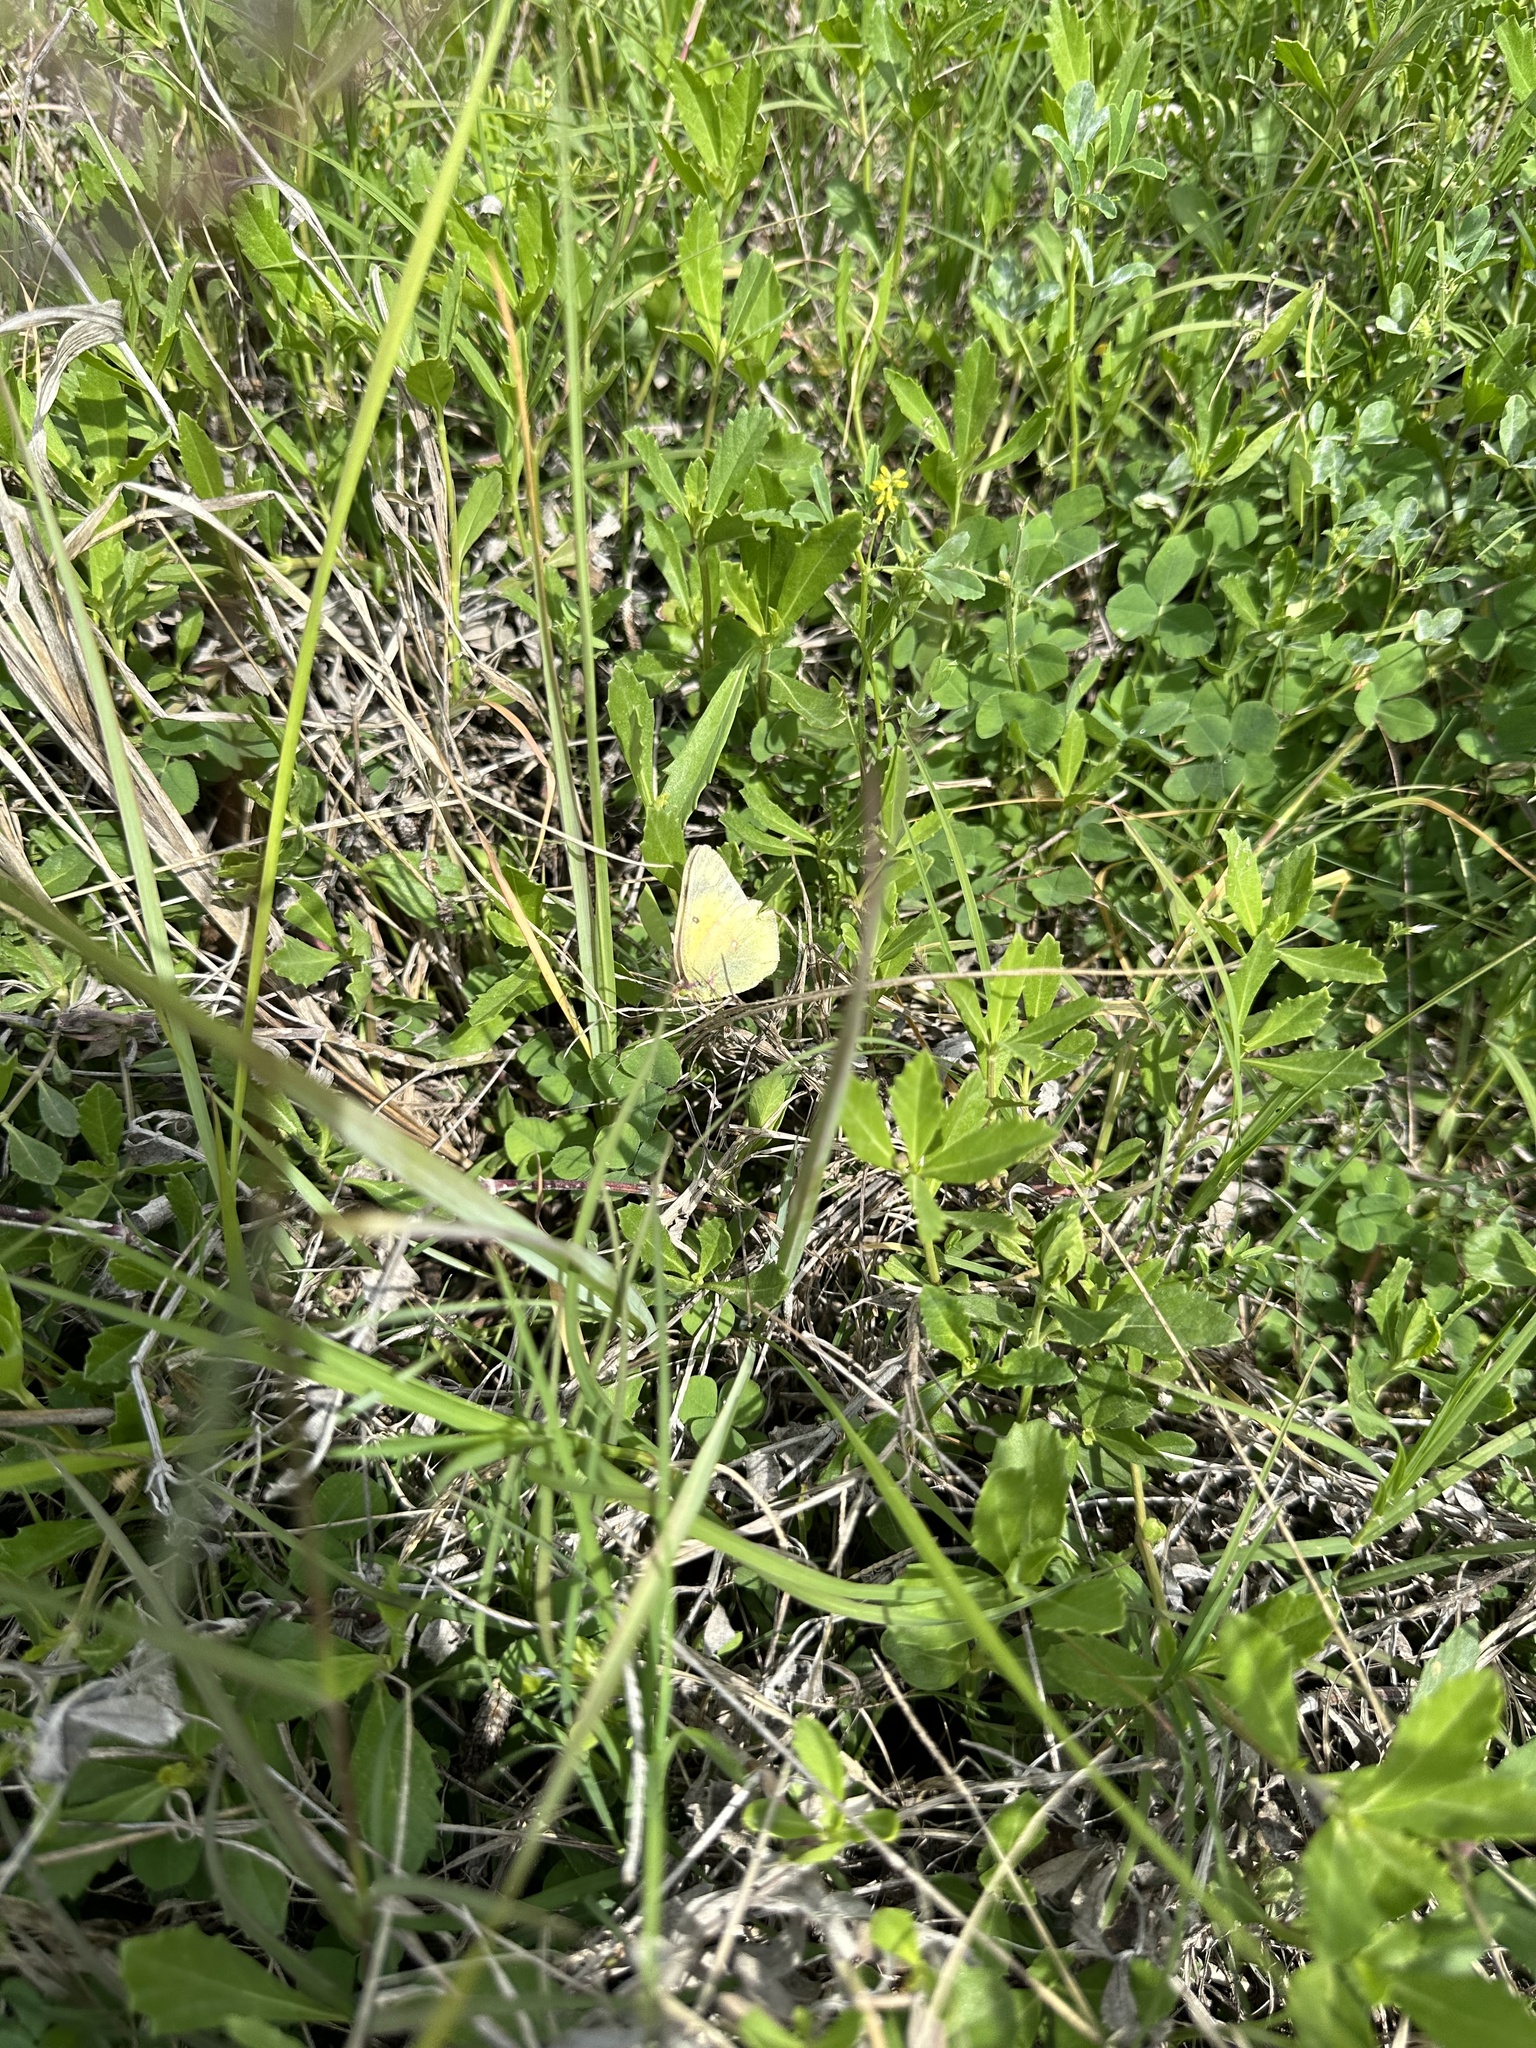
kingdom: Animalia
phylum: Arthropoda
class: Insecta
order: Lepidoptera
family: Pieridae
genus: Colias
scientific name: Colias eurytheme
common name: Alfalfa butterfly
